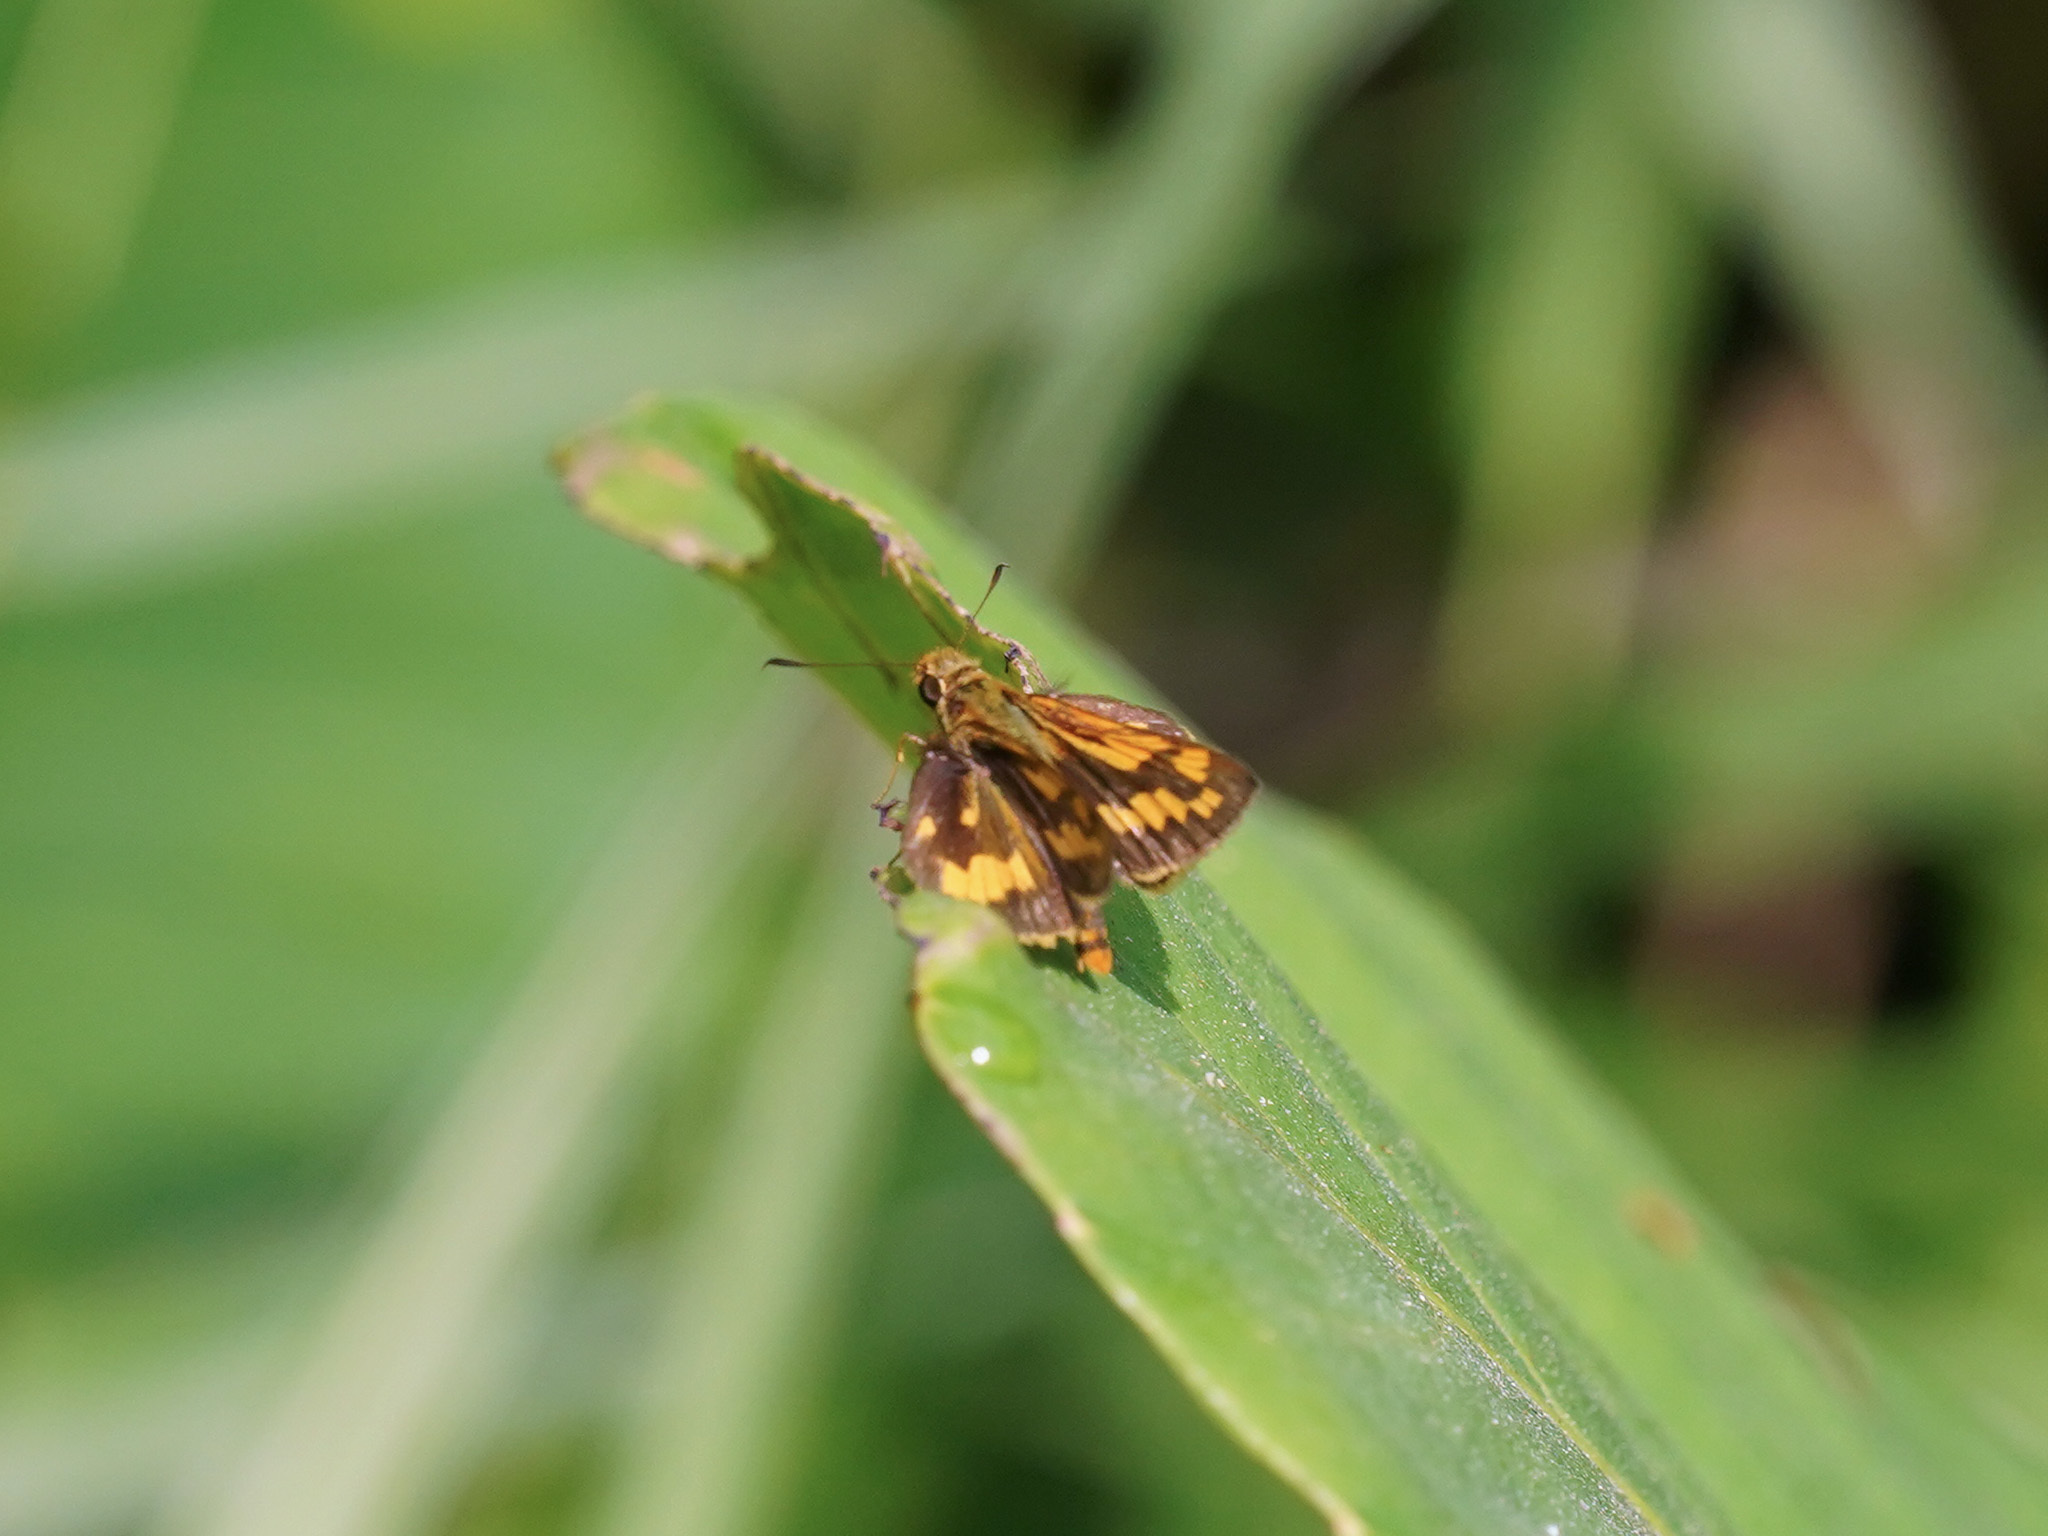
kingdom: Animalia
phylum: Arthropoda
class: Insecta
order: Lepidoptera
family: Hesperiidae
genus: Potanthus
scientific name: Potanthus omaha
